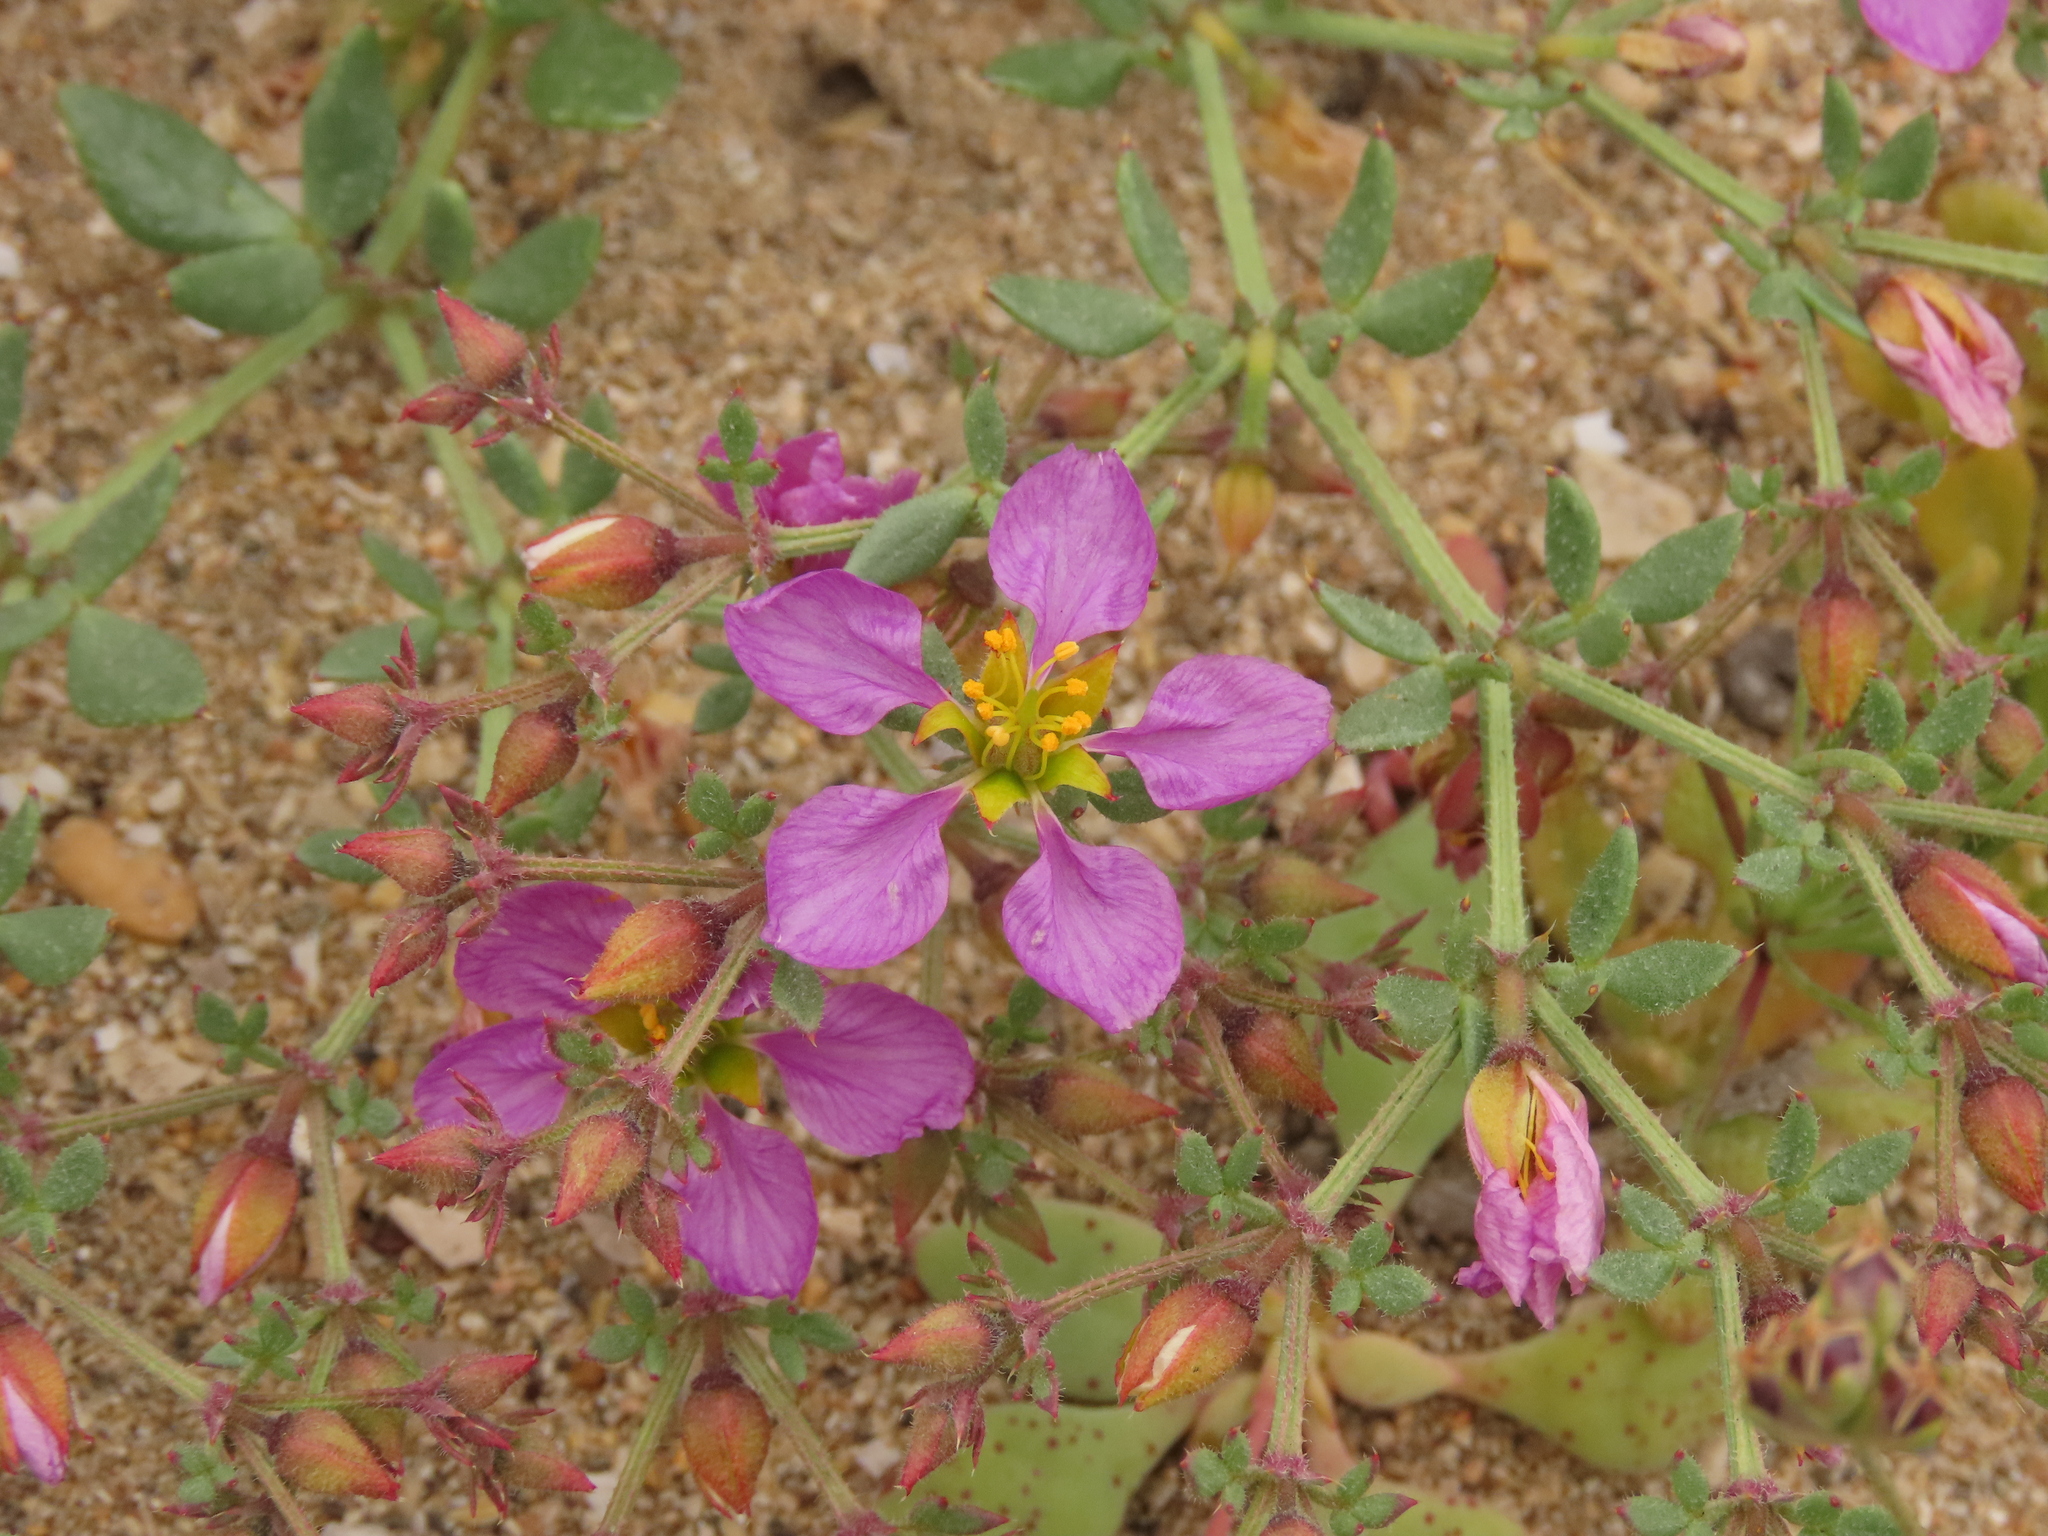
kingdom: Plantae
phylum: Tracheophyta
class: Magnoliopsida
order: Zygophyllales
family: Zygophyllaceae
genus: Fagonia
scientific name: Fagonia chilensis
